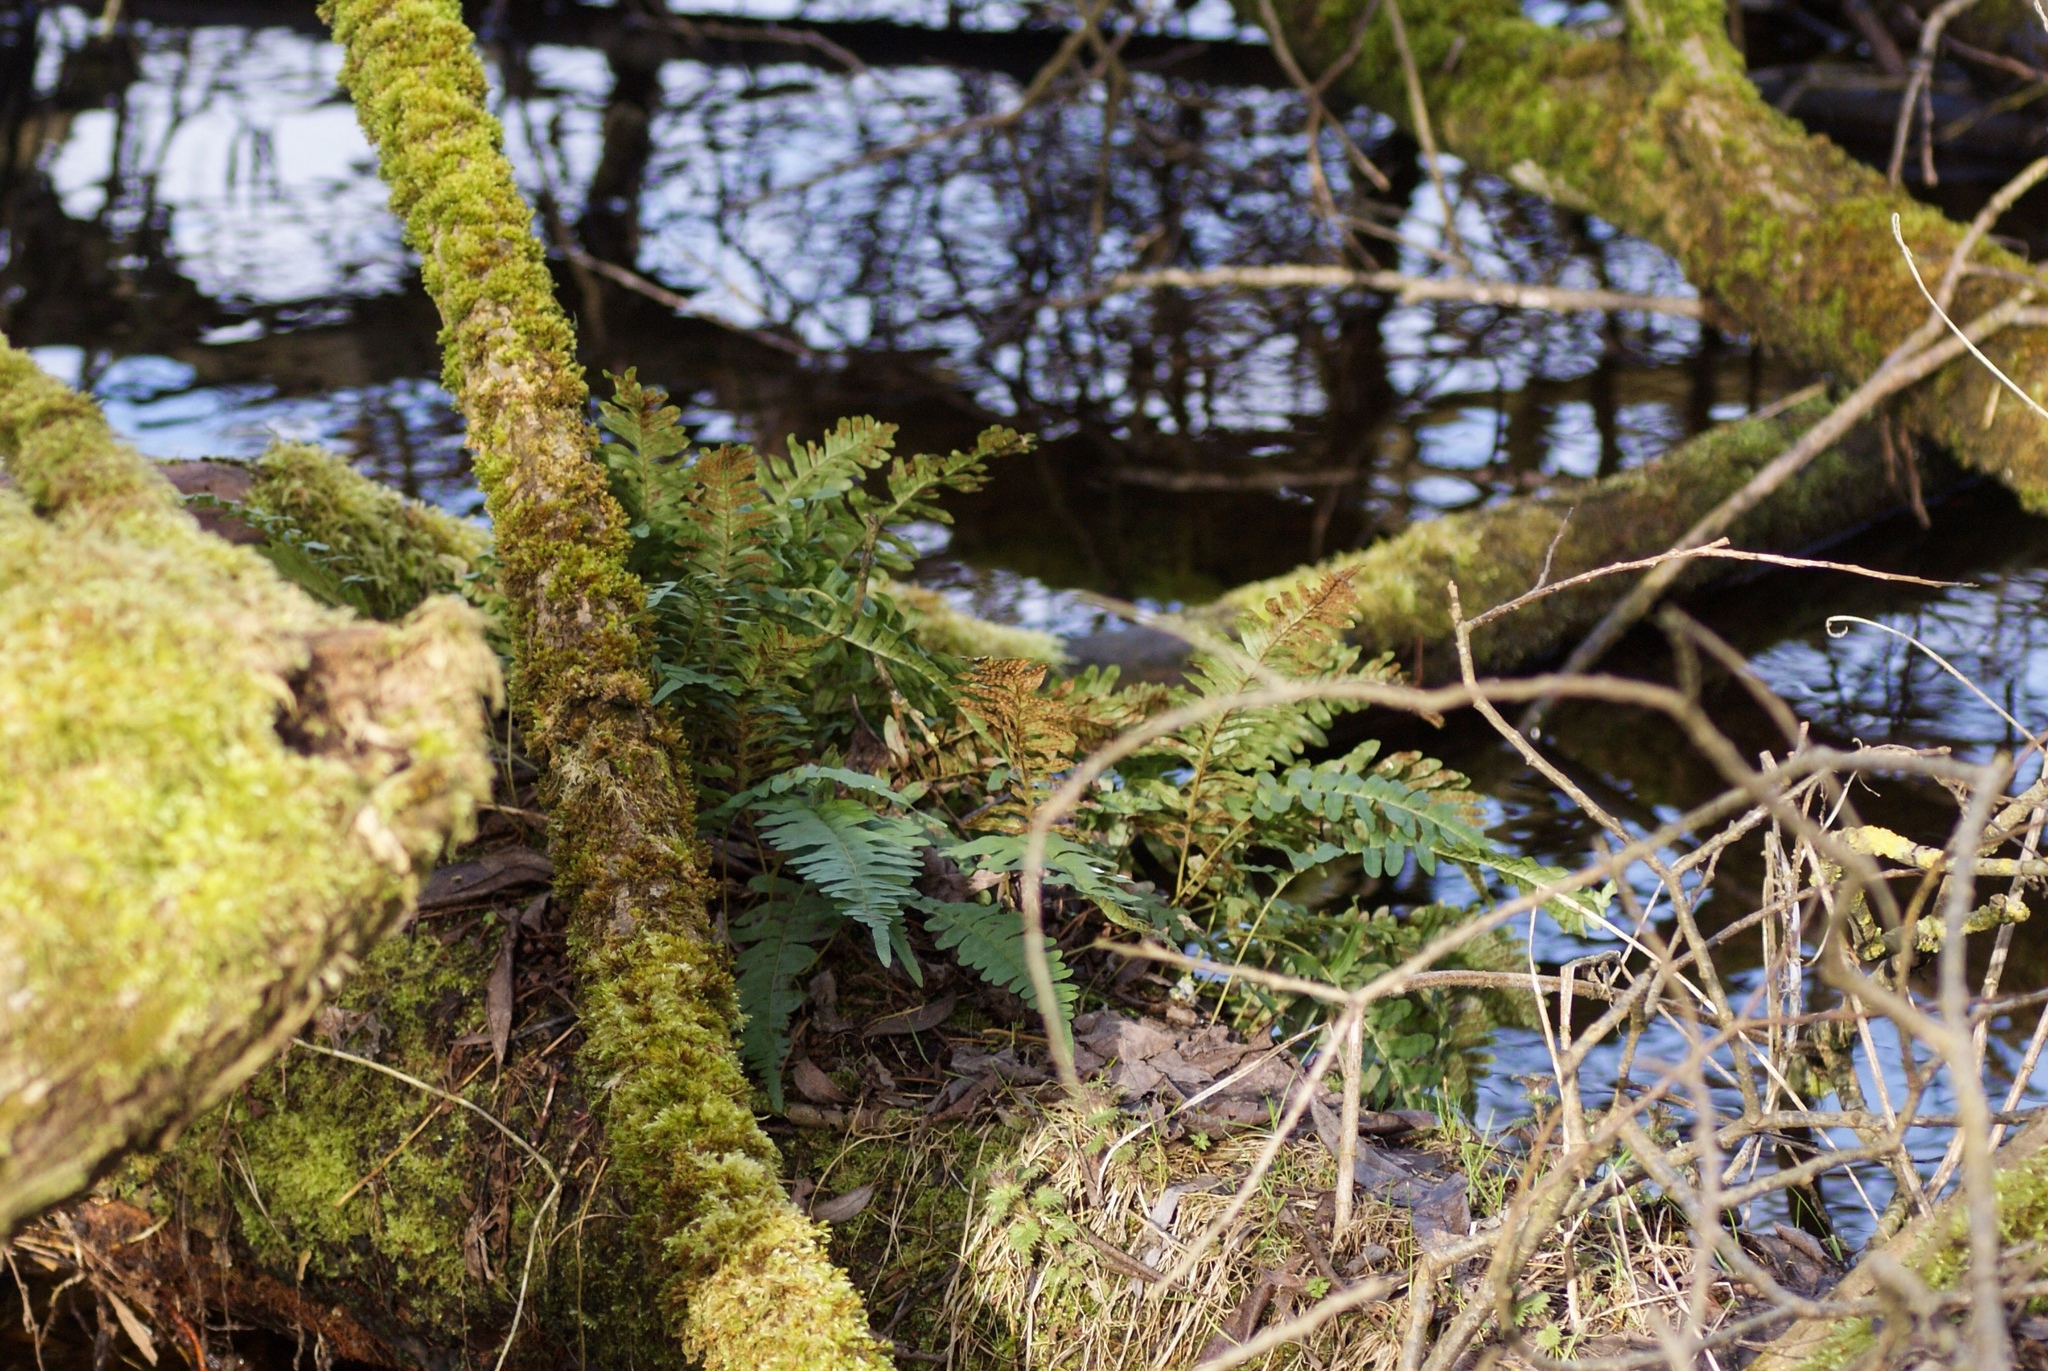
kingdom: Plantae
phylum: Tracheophyta
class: Polypodiopsida
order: Polypodiales
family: Polypodiaceae
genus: Polypodium
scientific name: Polypodium vulgare
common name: Common polypody
